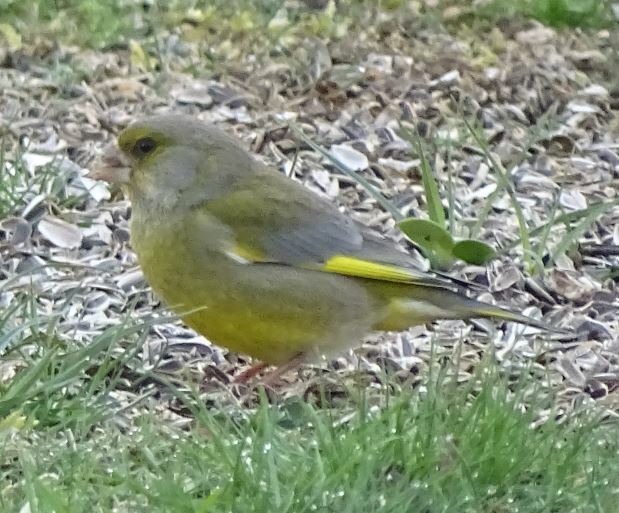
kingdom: Plantae
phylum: Tracheophyta
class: Liliopsida
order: Poales
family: Poaceae
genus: Chloris
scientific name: Chloris chloris
